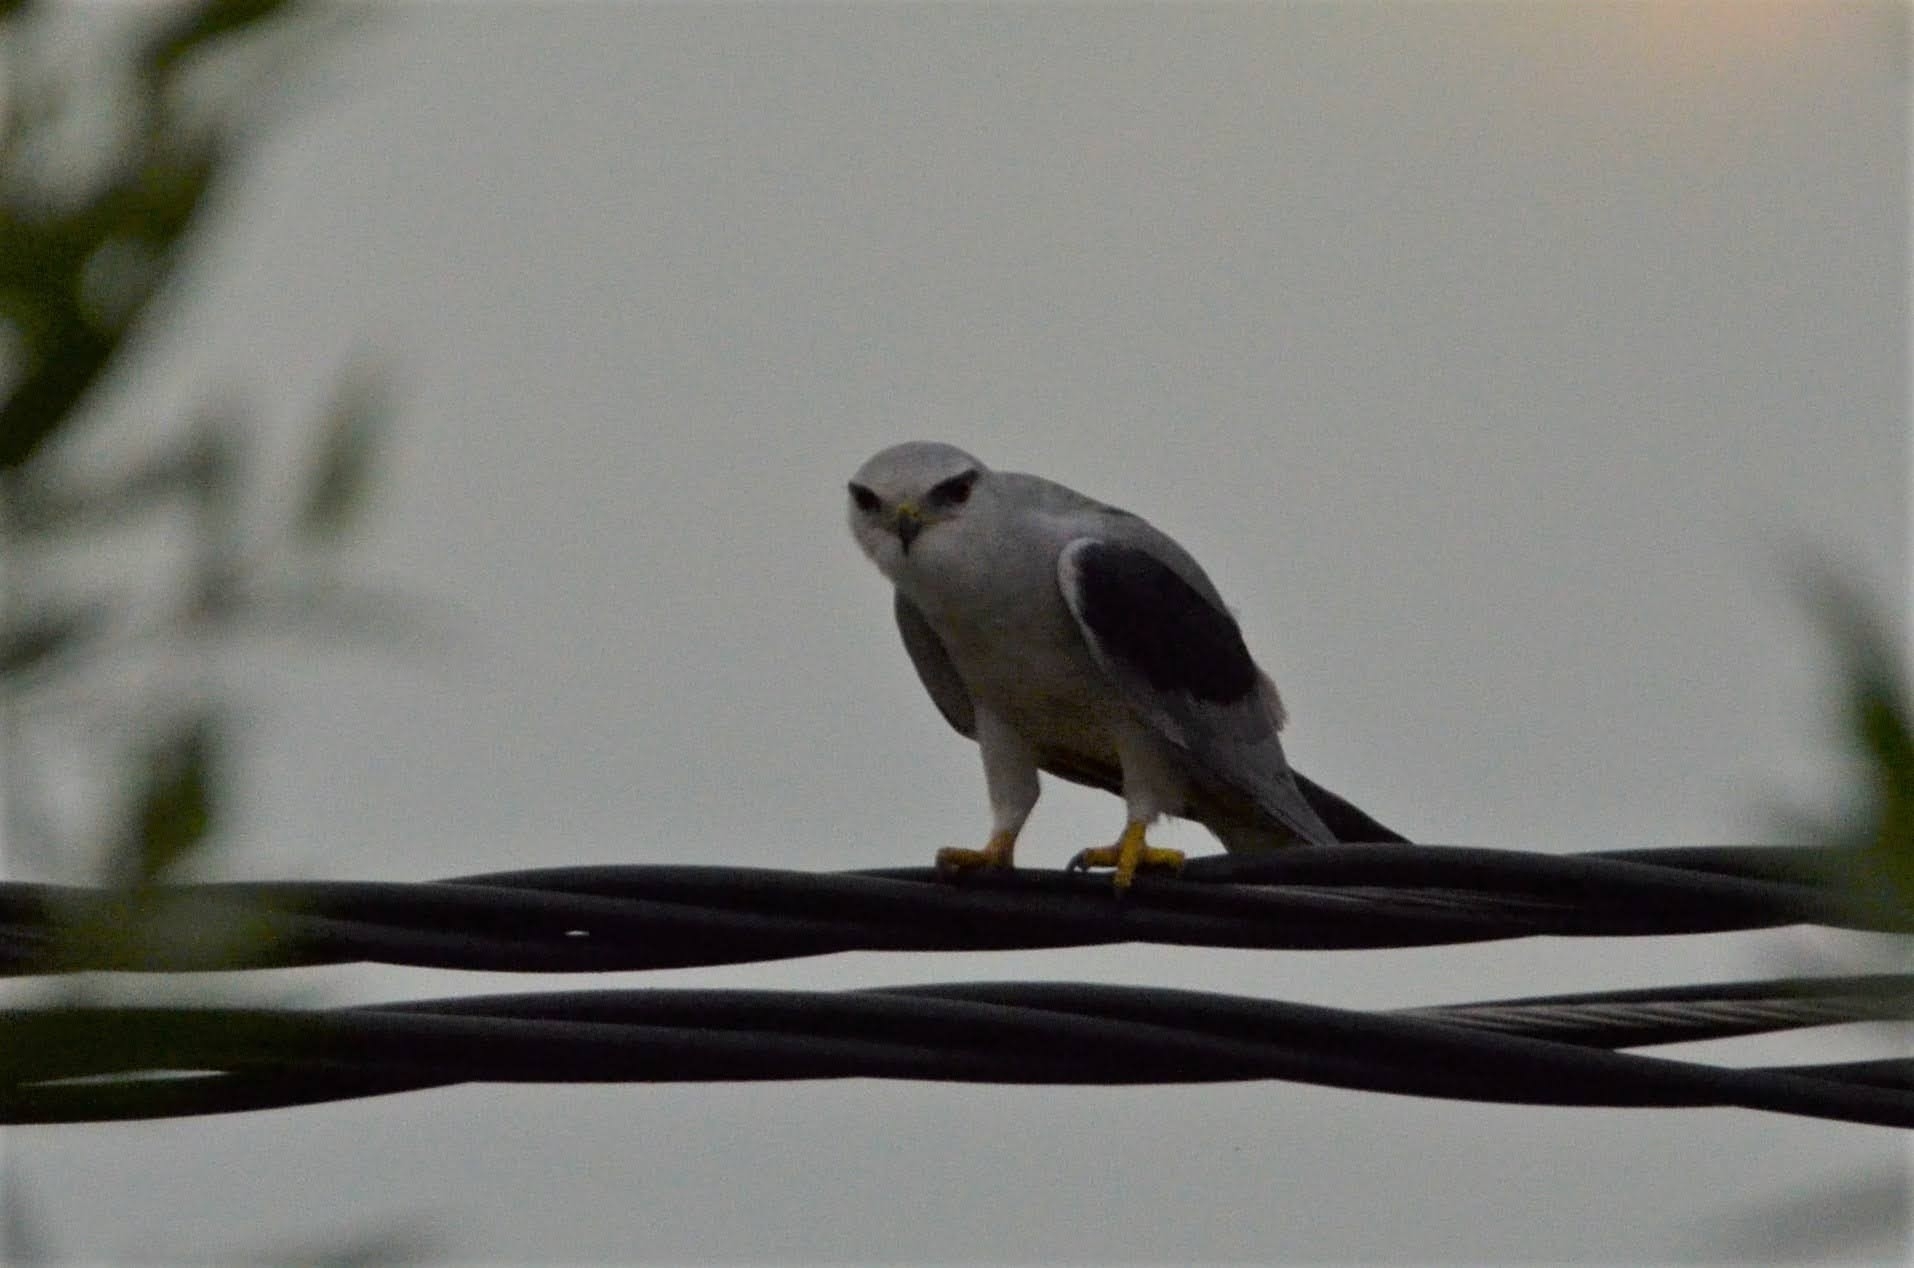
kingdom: Animalia
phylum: Chordata
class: Aves
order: Accipitriformes
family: Accipitridae
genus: Elanus
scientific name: Elanus caeruleus
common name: Black-winged kite
